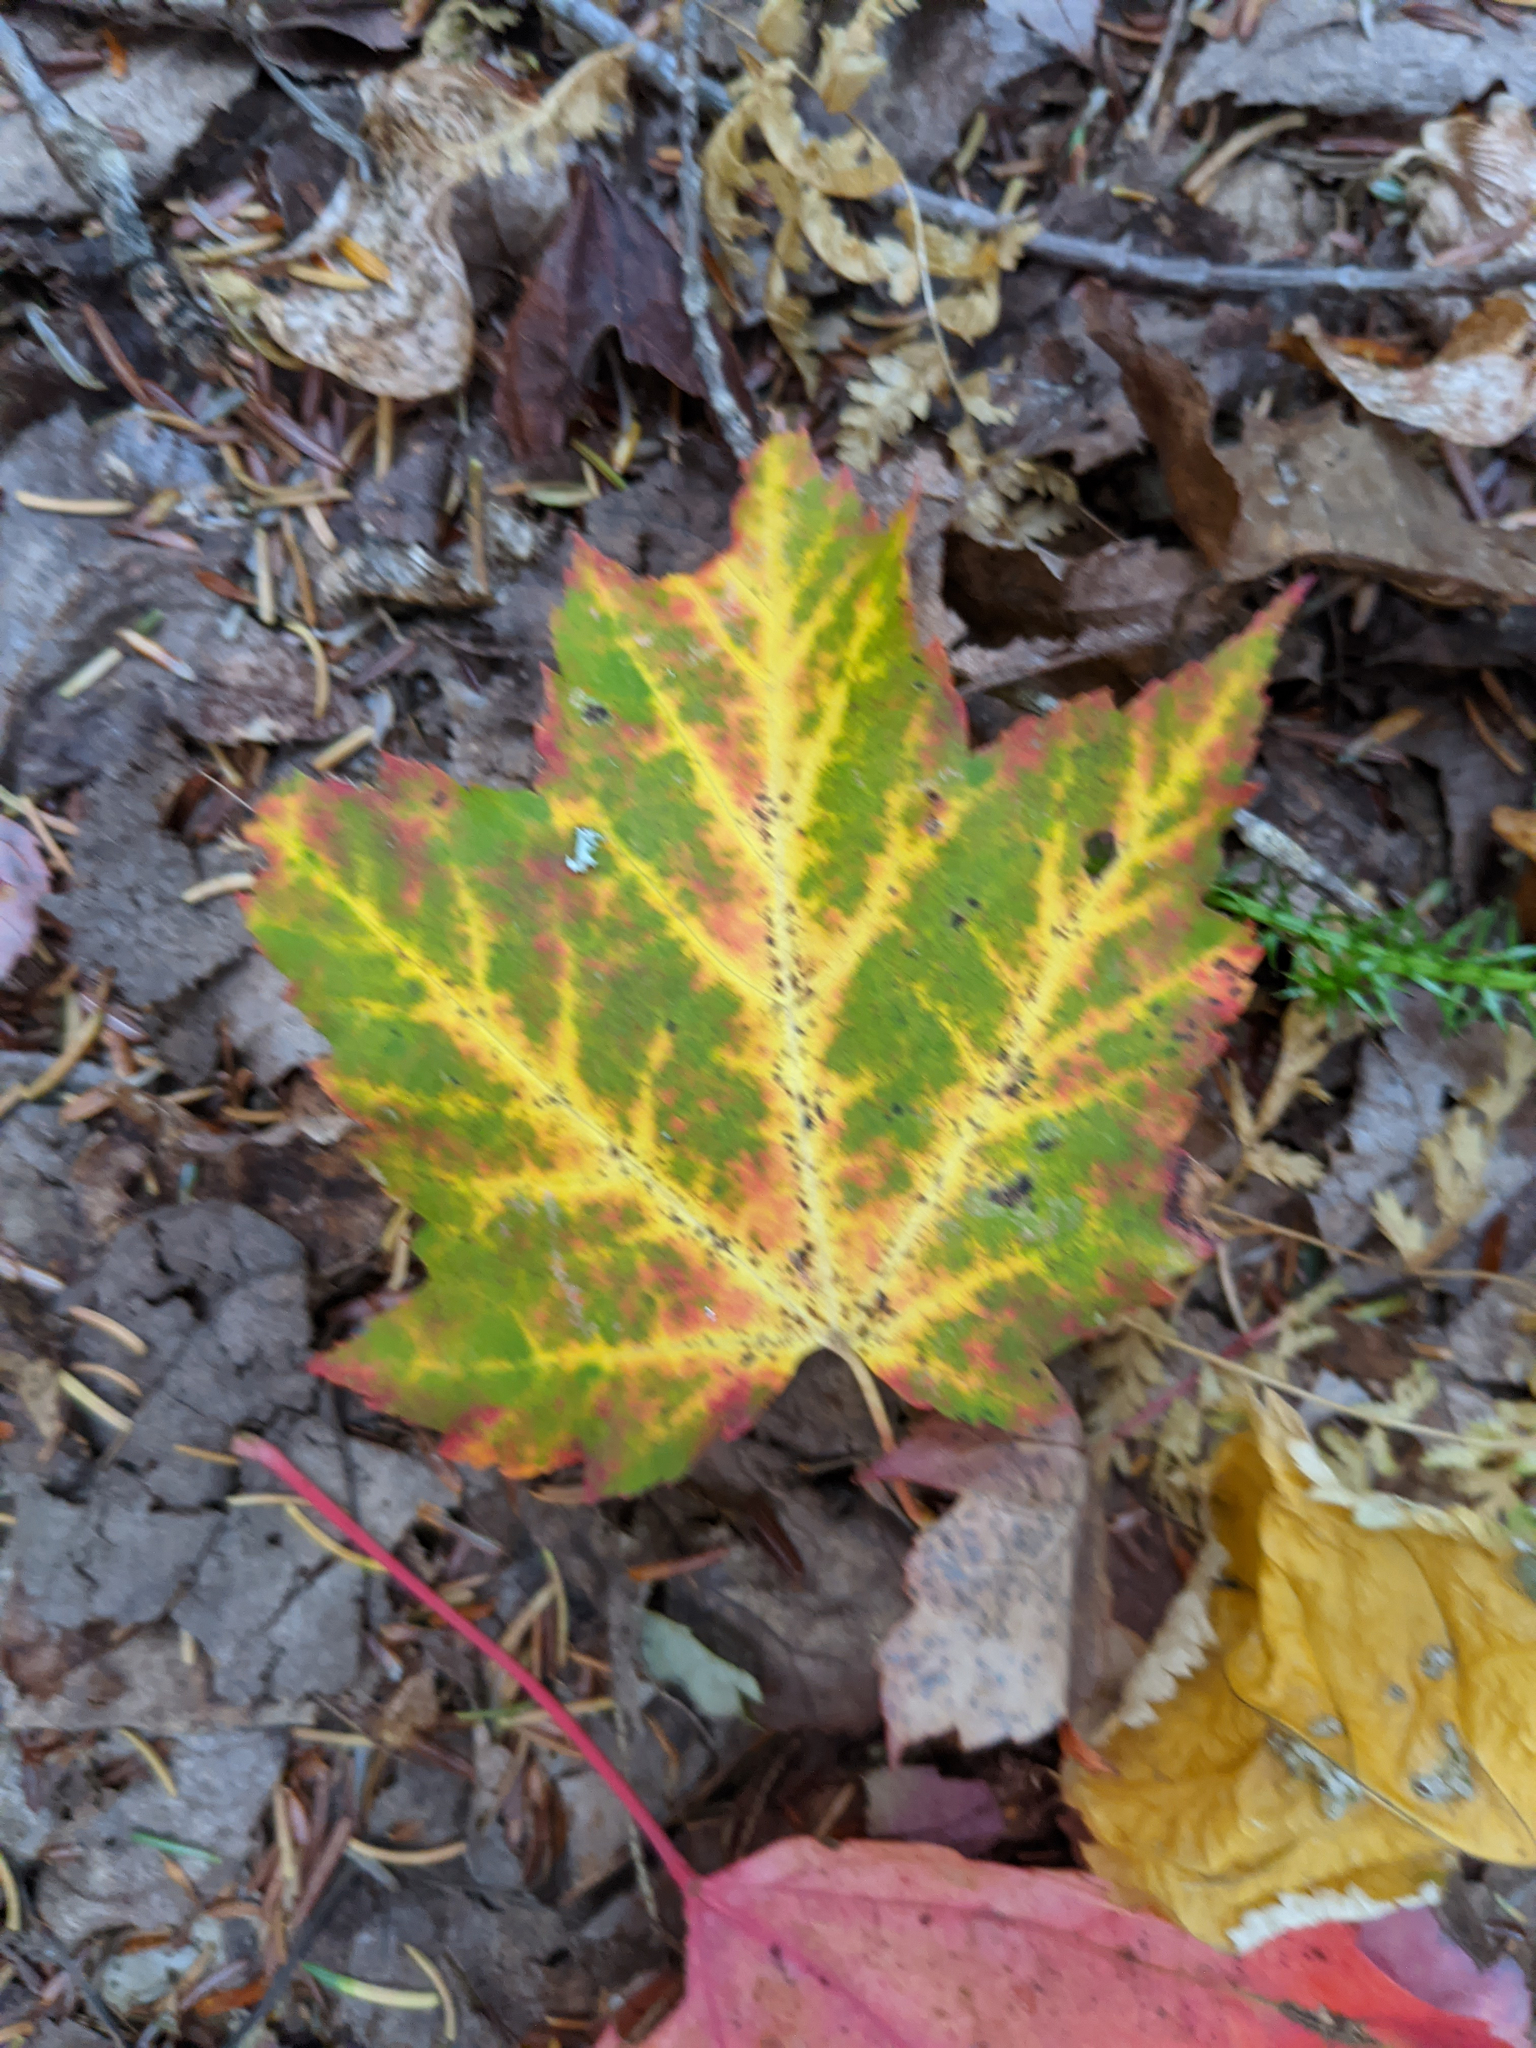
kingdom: Plantae
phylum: Tracheophyta
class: Magnoliopsida
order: Sapindales
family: Sapindaceae
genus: Acer
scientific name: Acer rubrum
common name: Red maple
